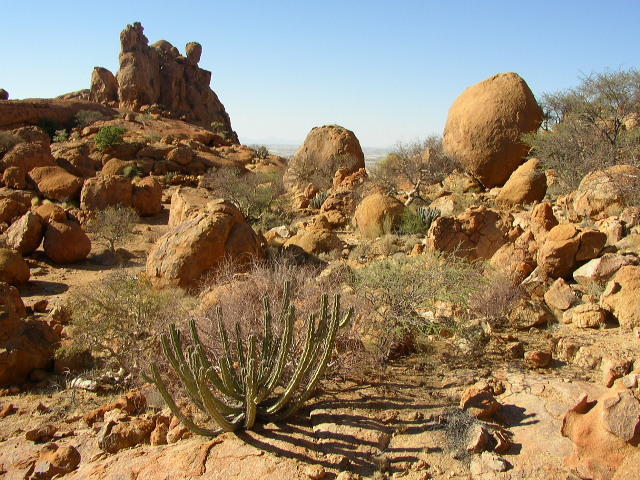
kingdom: Plantae
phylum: Tracheophyta
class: Magnoliopsida
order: Malpighiales
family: Euphorbiaceae
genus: Euphorbia
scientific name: Euphorbia virosa
